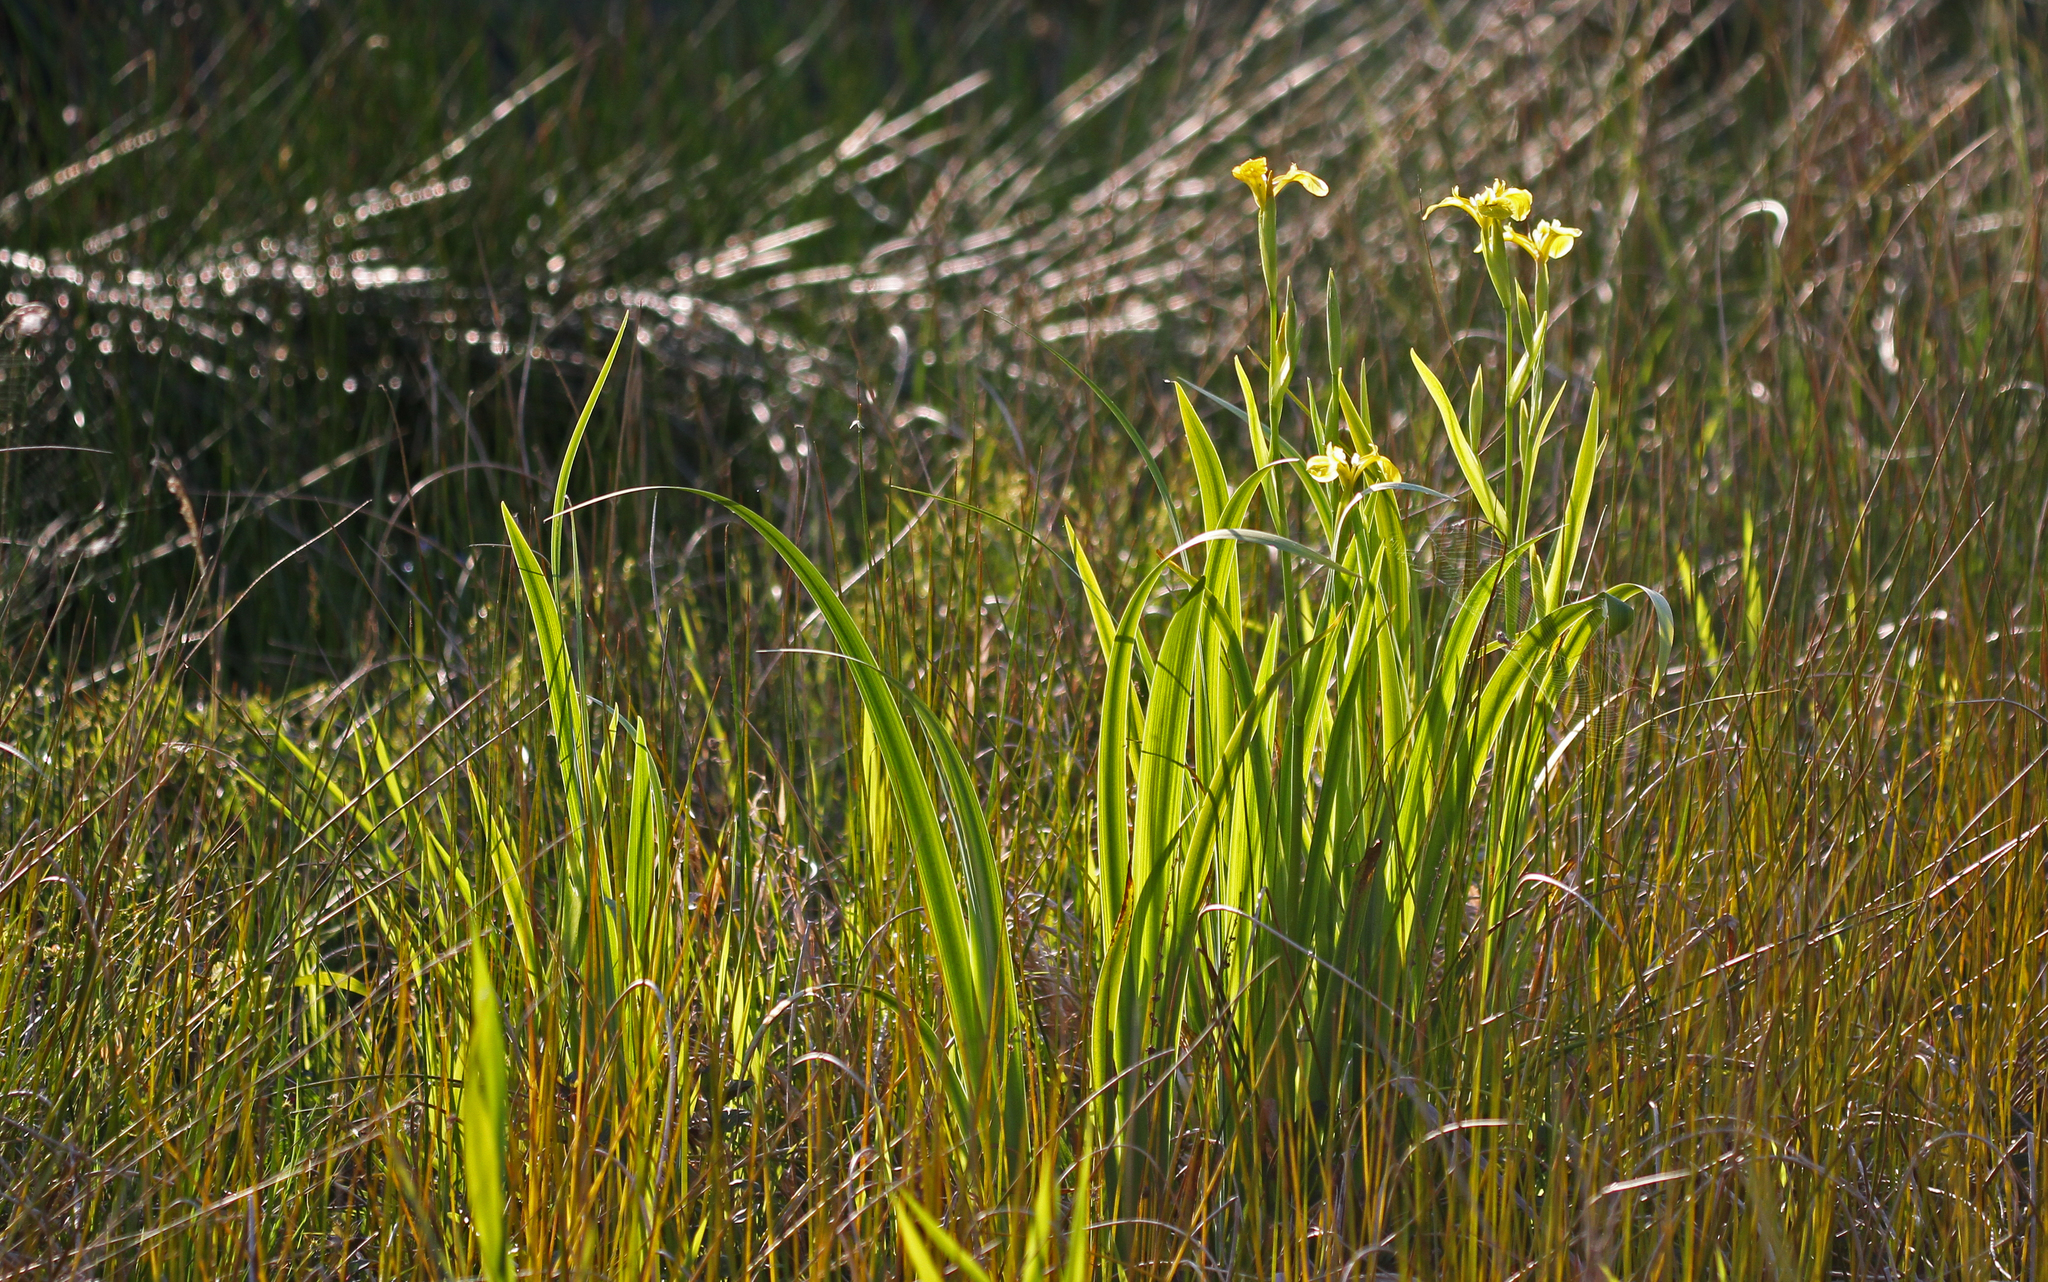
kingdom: Plantae
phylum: Tracheophyta
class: Liliopsida
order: Asparagales
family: Iridaceae
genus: Iris
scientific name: Iris pseudacorus
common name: Yellow flag
